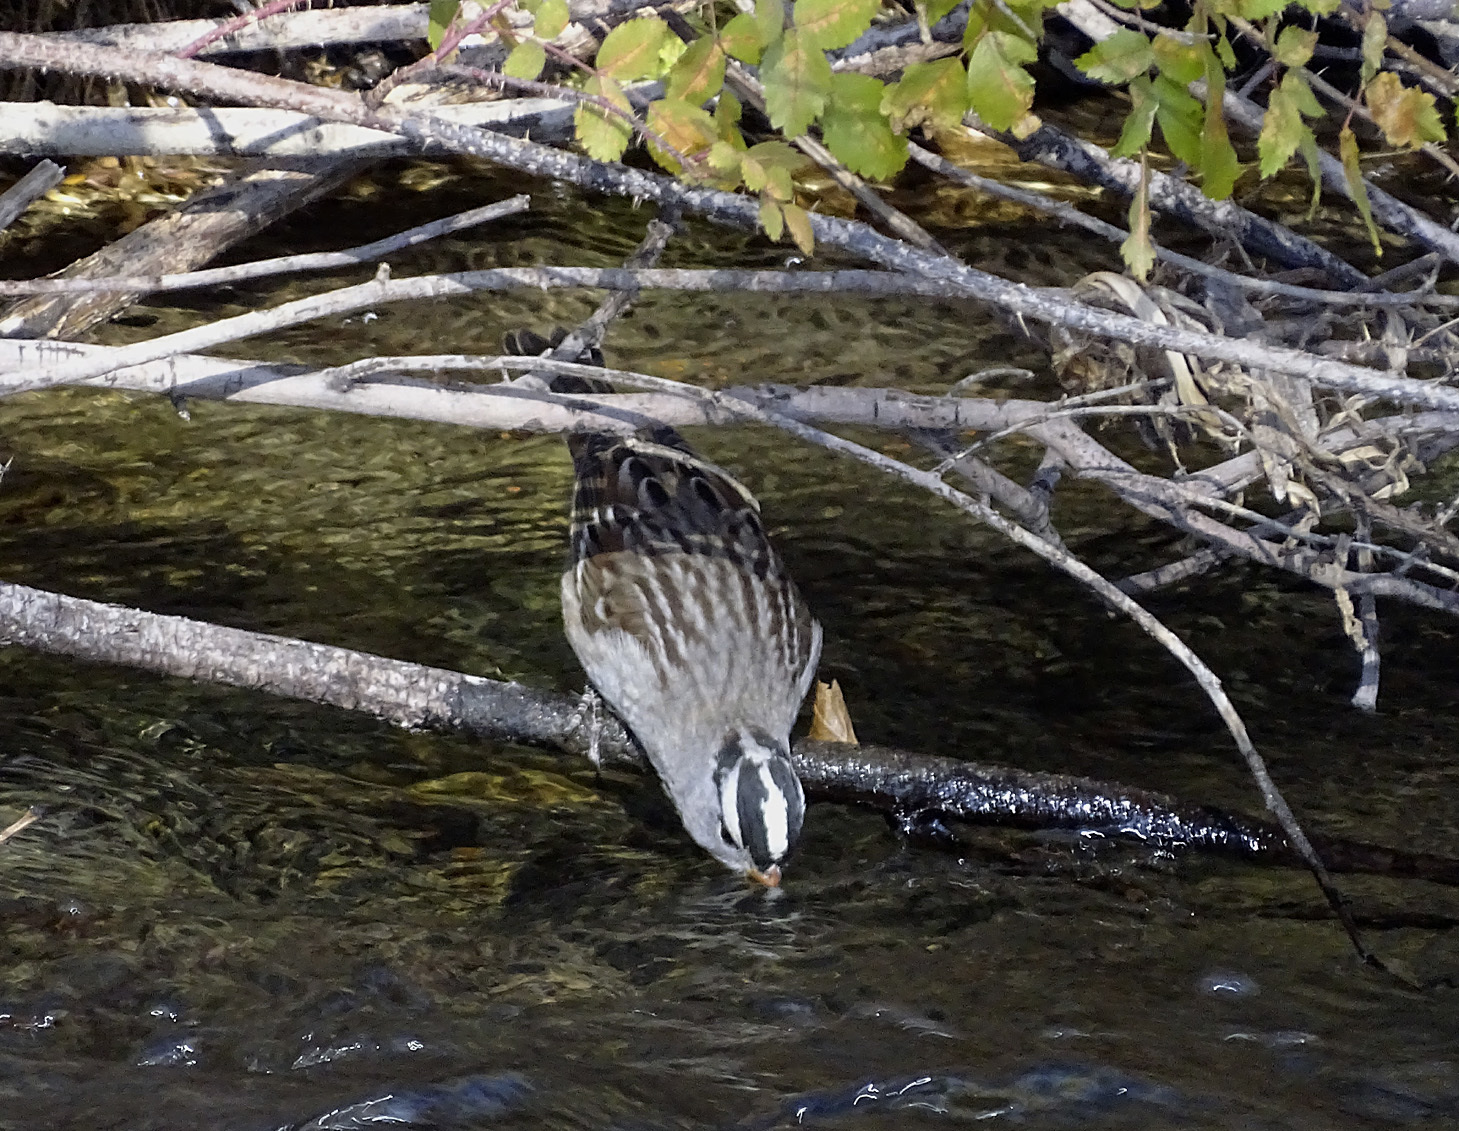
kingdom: Animalia
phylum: Chordata
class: Aves
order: Passeriformes
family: Passerellidae
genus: Zonotrichia
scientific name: Zonotrichia leucophrys
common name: White-crowned sparrow
